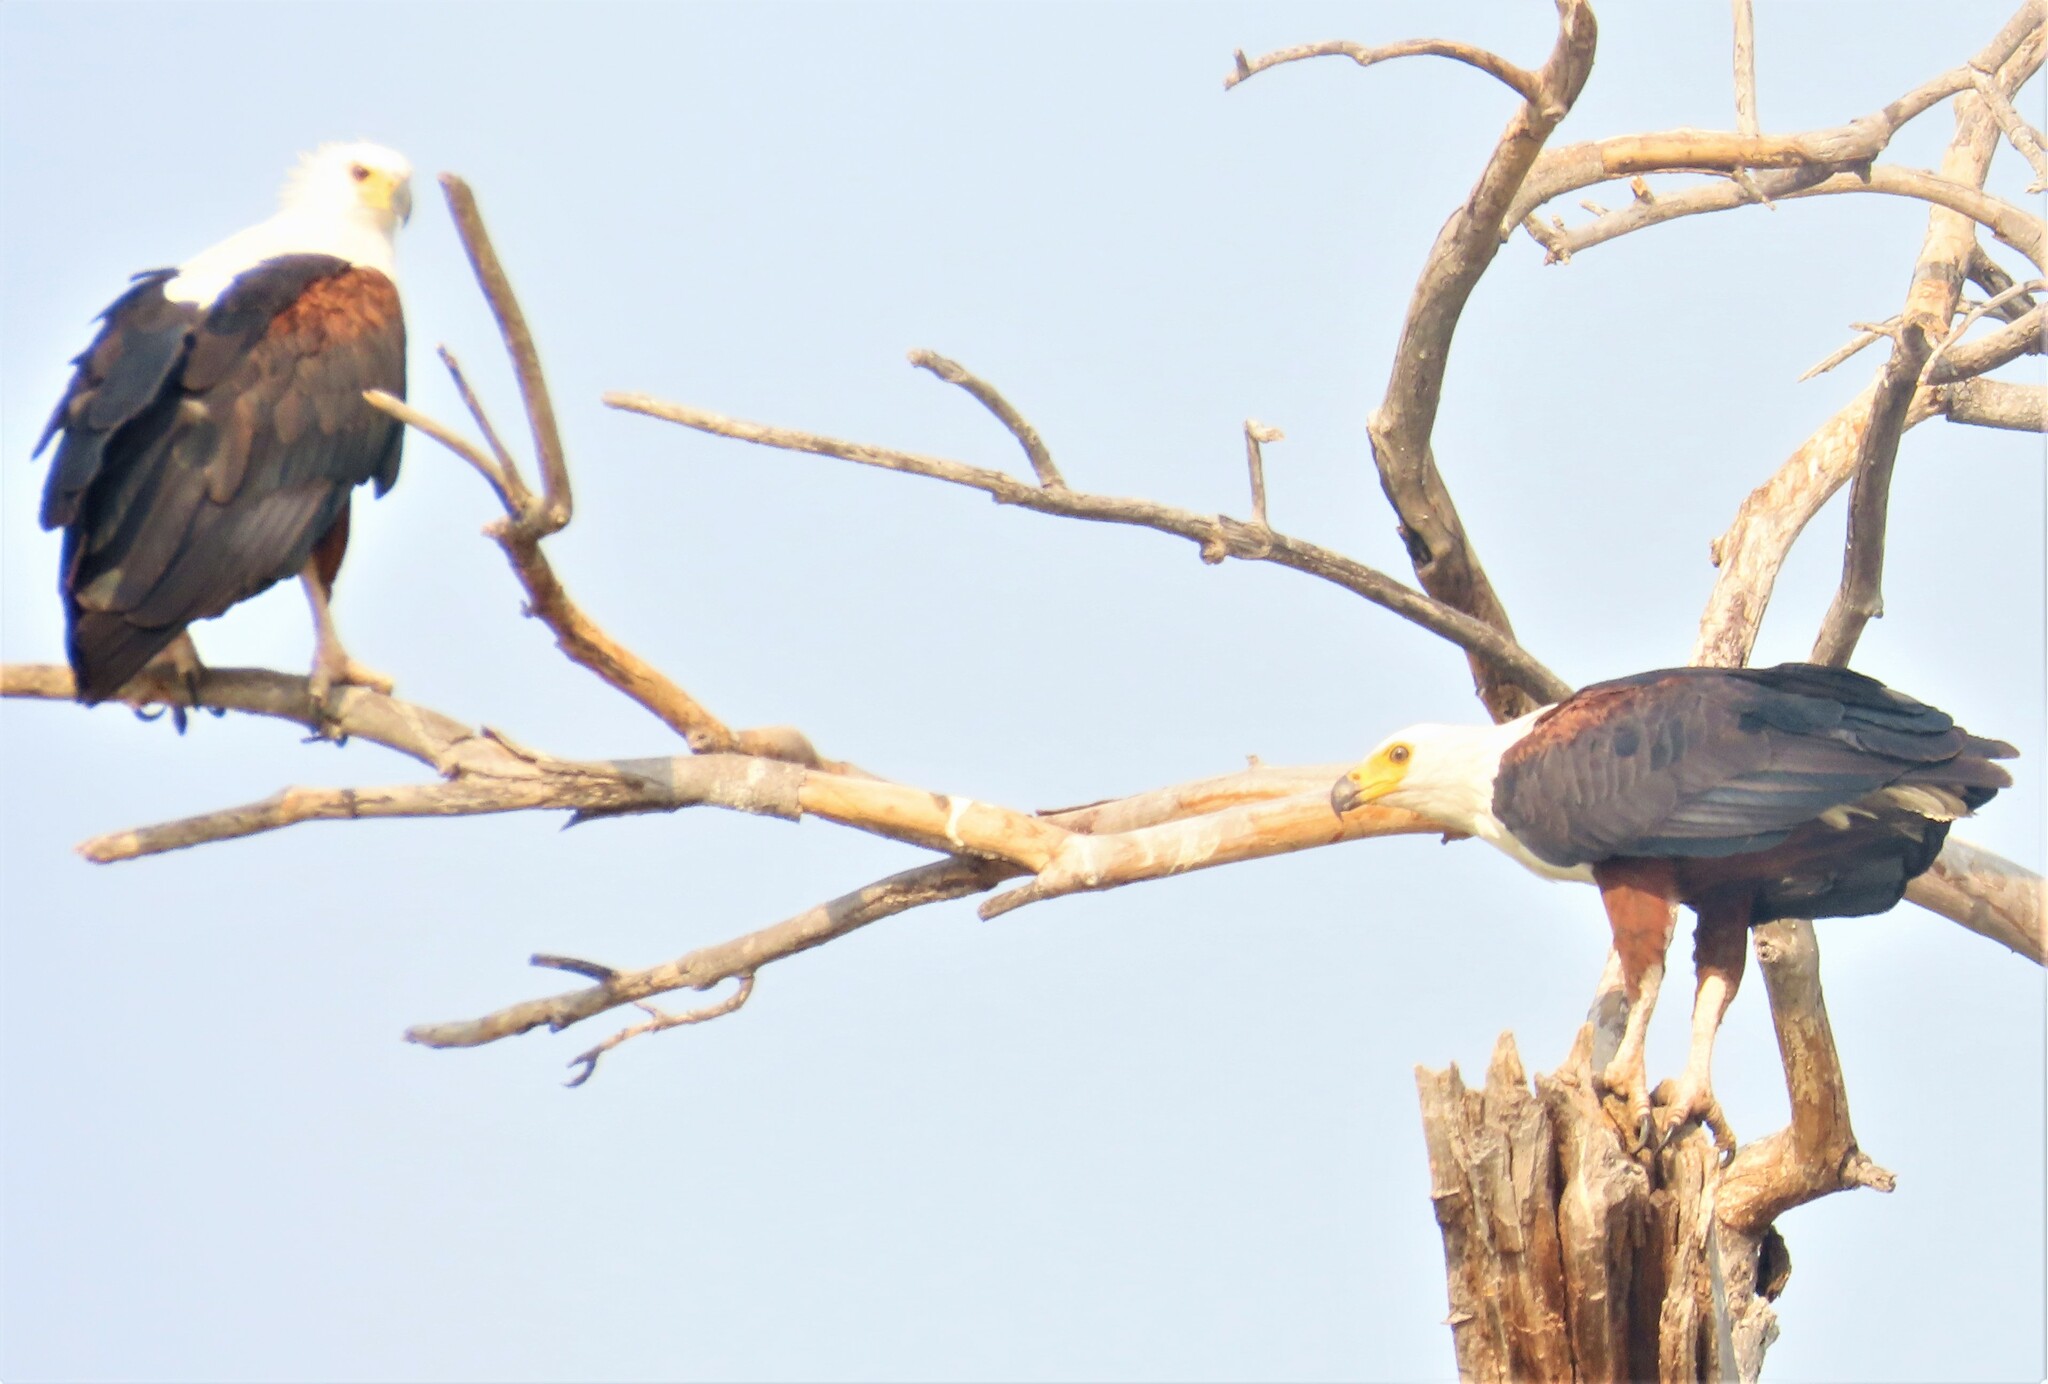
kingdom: Animalia
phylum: Chordata
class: Aves
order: Accipitriformes
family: Accipitridae
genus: Haliaeetus
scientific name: Haliaeetus vocifer
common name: African fish eagle
